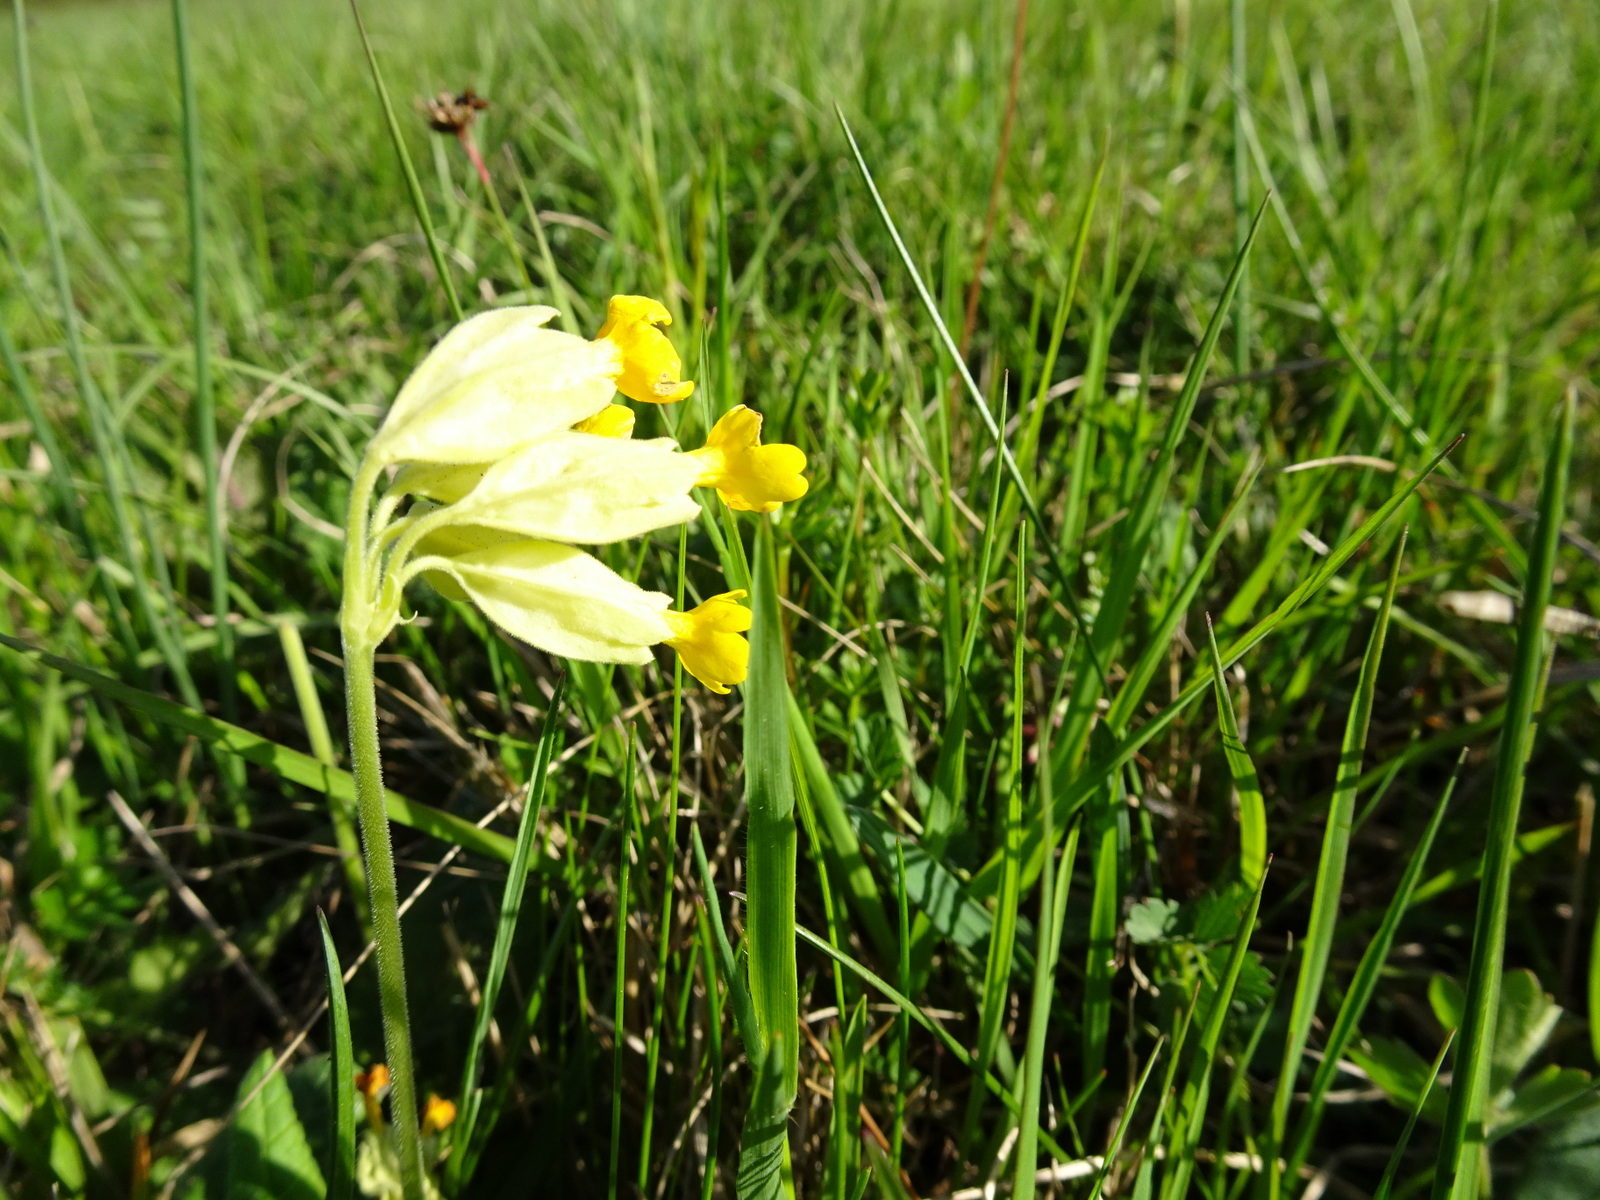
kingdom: Plantae
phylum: Tracheophyta
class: Magnoliopsida
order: Ericales
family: Primulaceae
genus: Primula
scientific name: Primula veris
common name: Cowslip
